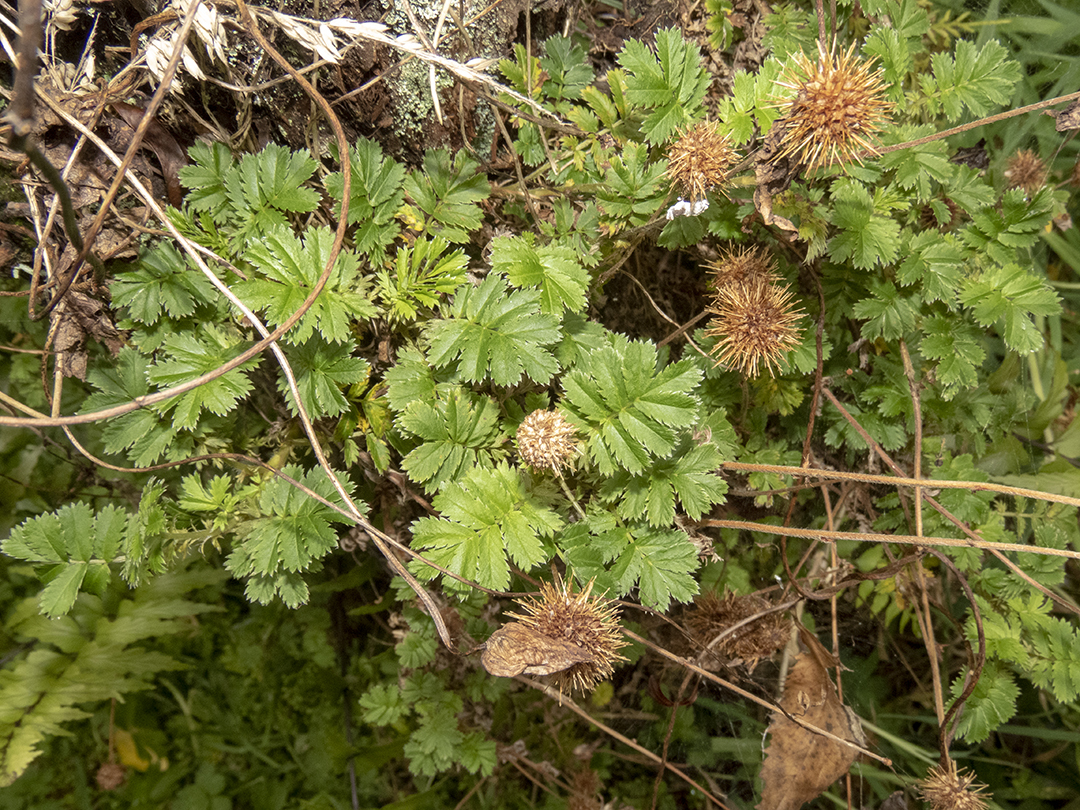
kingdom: Plantae
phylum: Tracheophyta
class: Magnoliopsida
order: Rosales
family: Rosaceae
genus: Acaena
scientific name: Acaena anserinifolia
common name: Bronze pirri-pirri-bur
